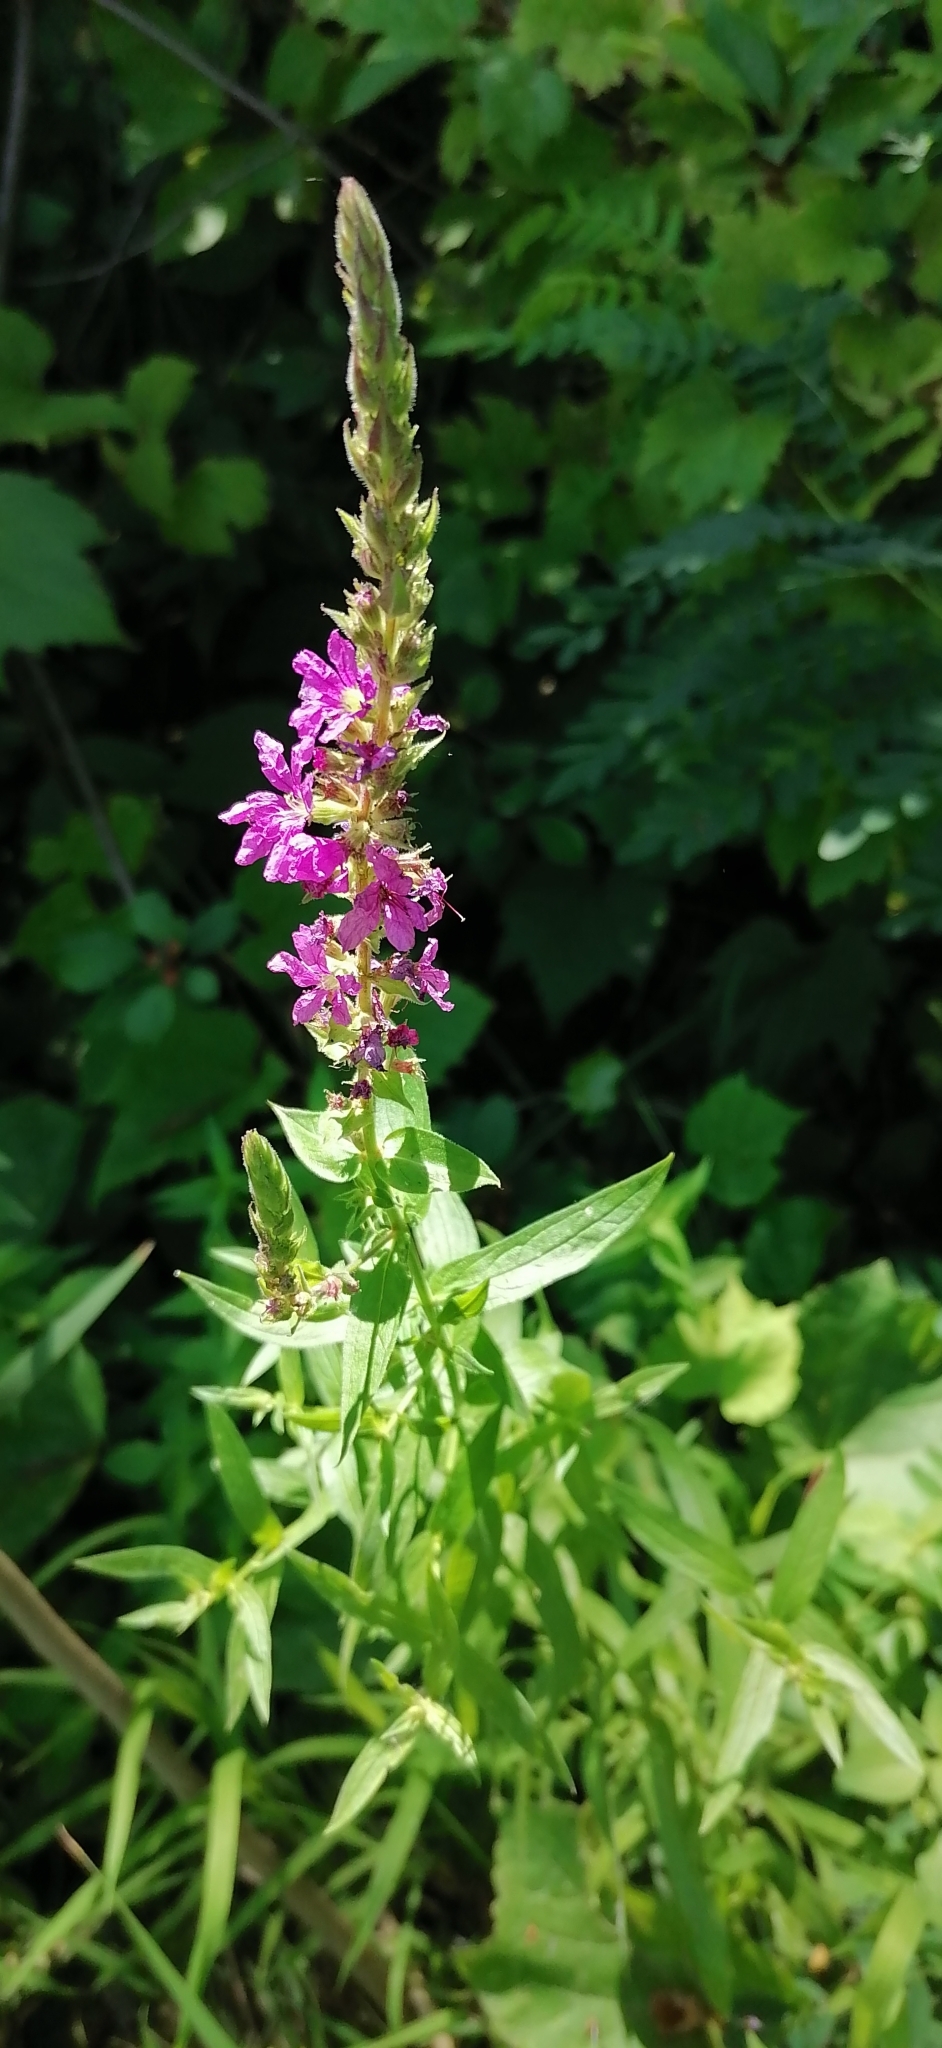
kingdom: Plantae
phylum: Tracheophyta
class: Magnoliopsida
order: Myrtales
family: Lythraceae
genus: Lythrum
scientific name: Lythrum salicaria
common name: Purple loosestrife
